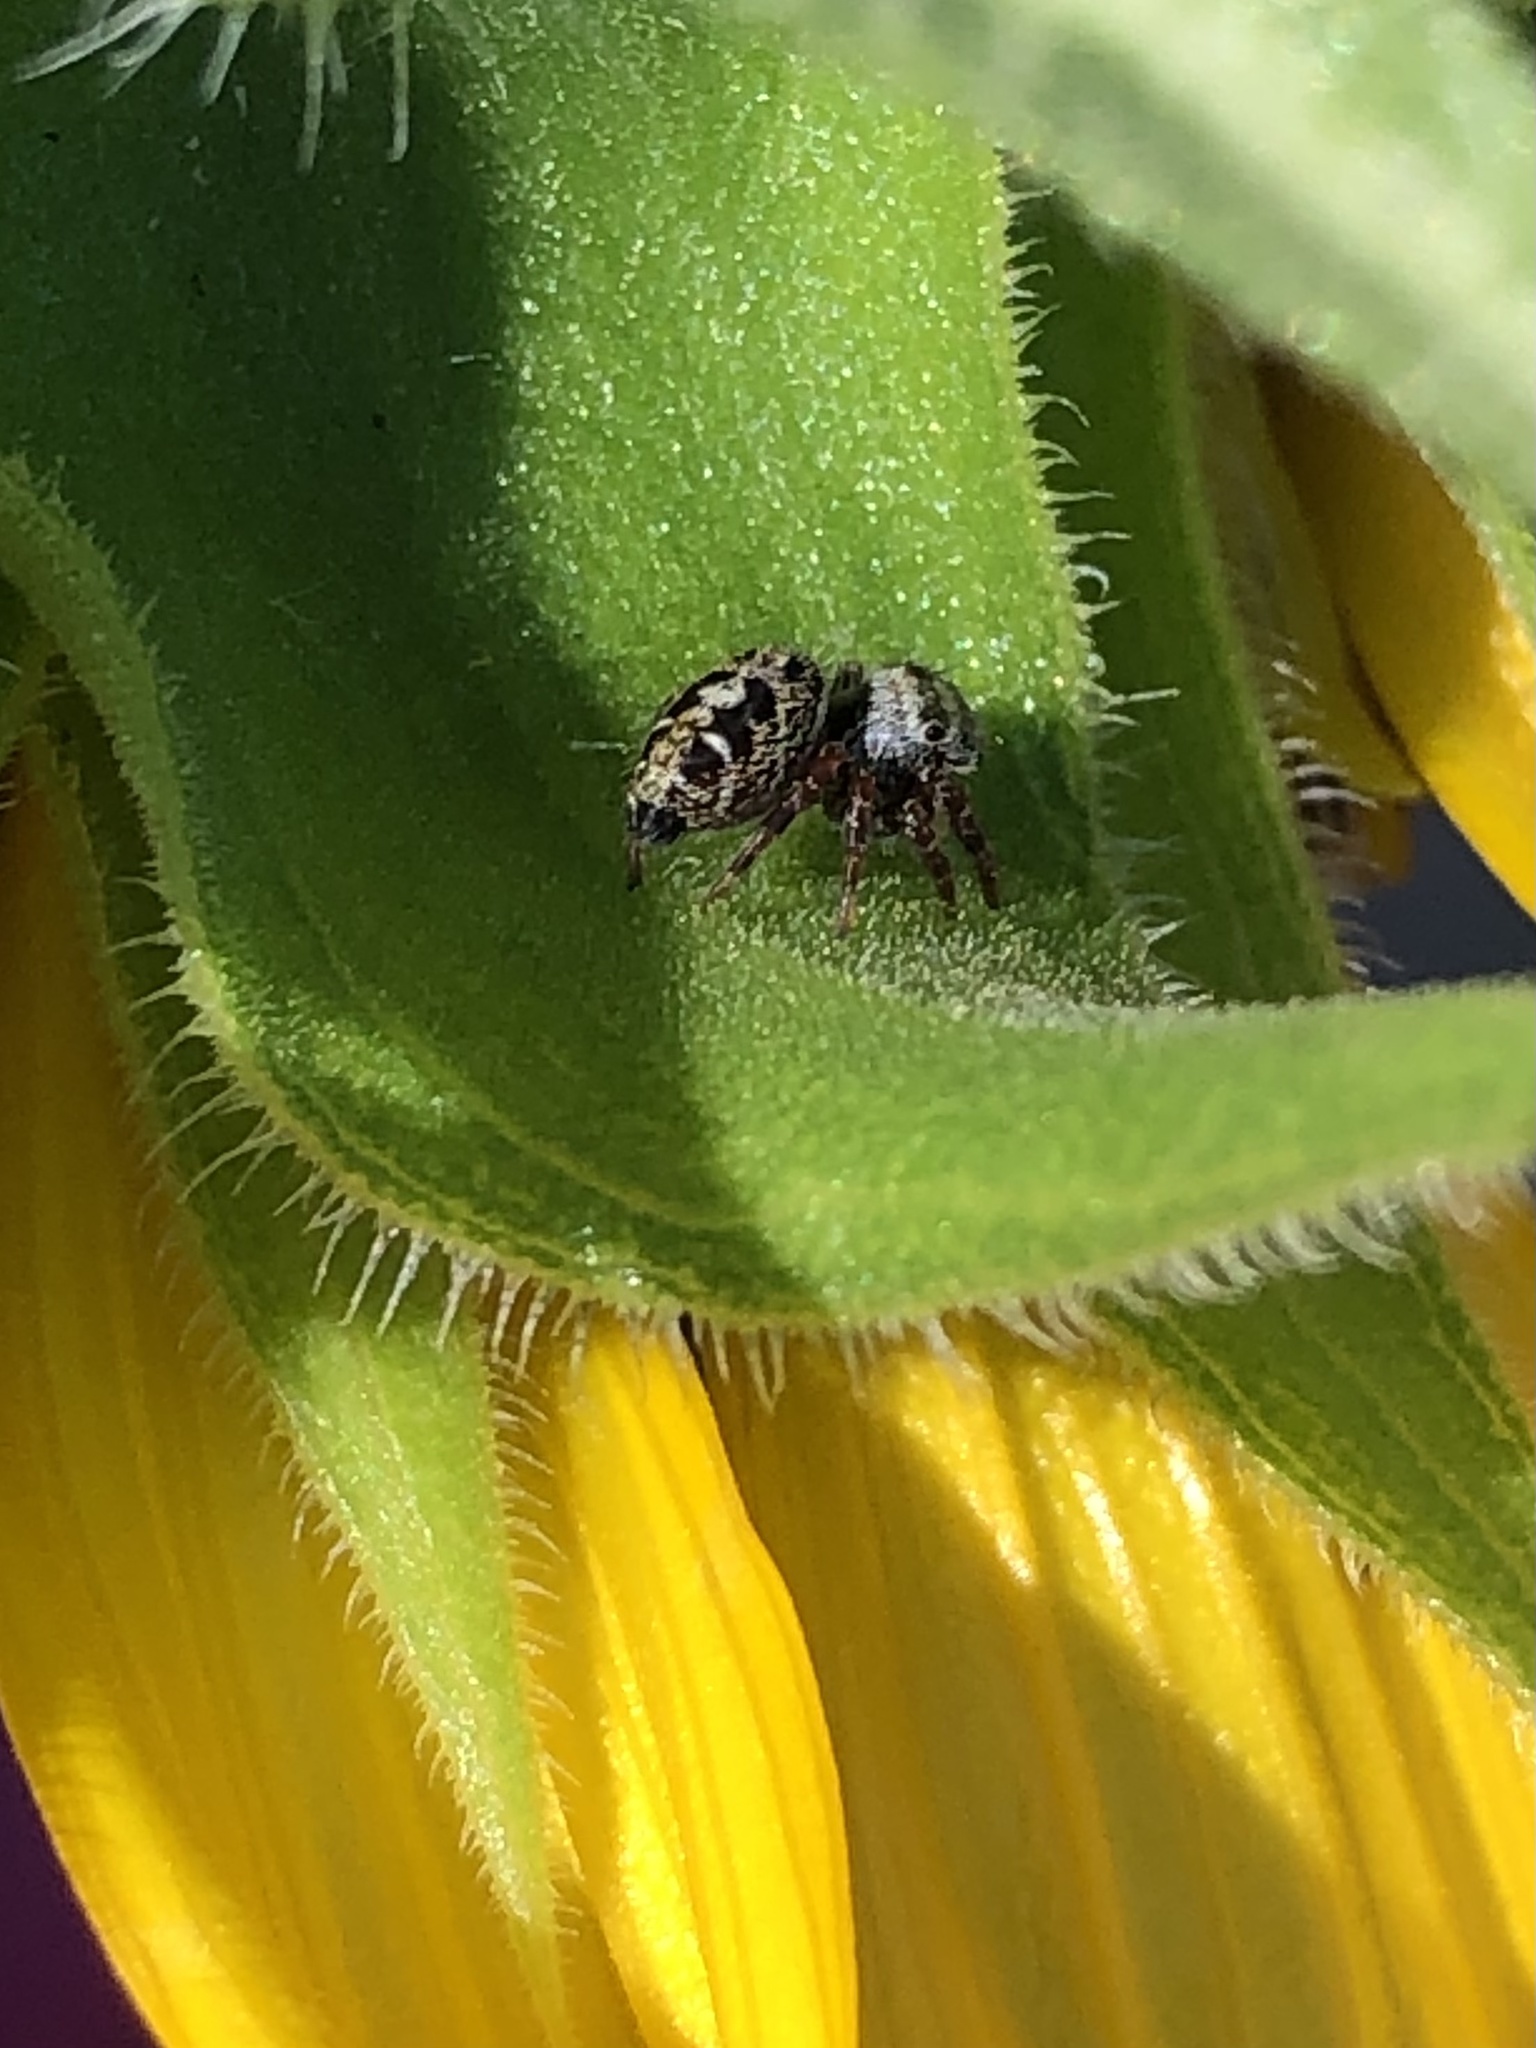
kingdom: Animalia
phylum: Arthropoda
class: Arachnida
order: Araneae
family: Salticidae
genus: Phidippus
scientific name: Phidippus audax
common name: Bold jumper
